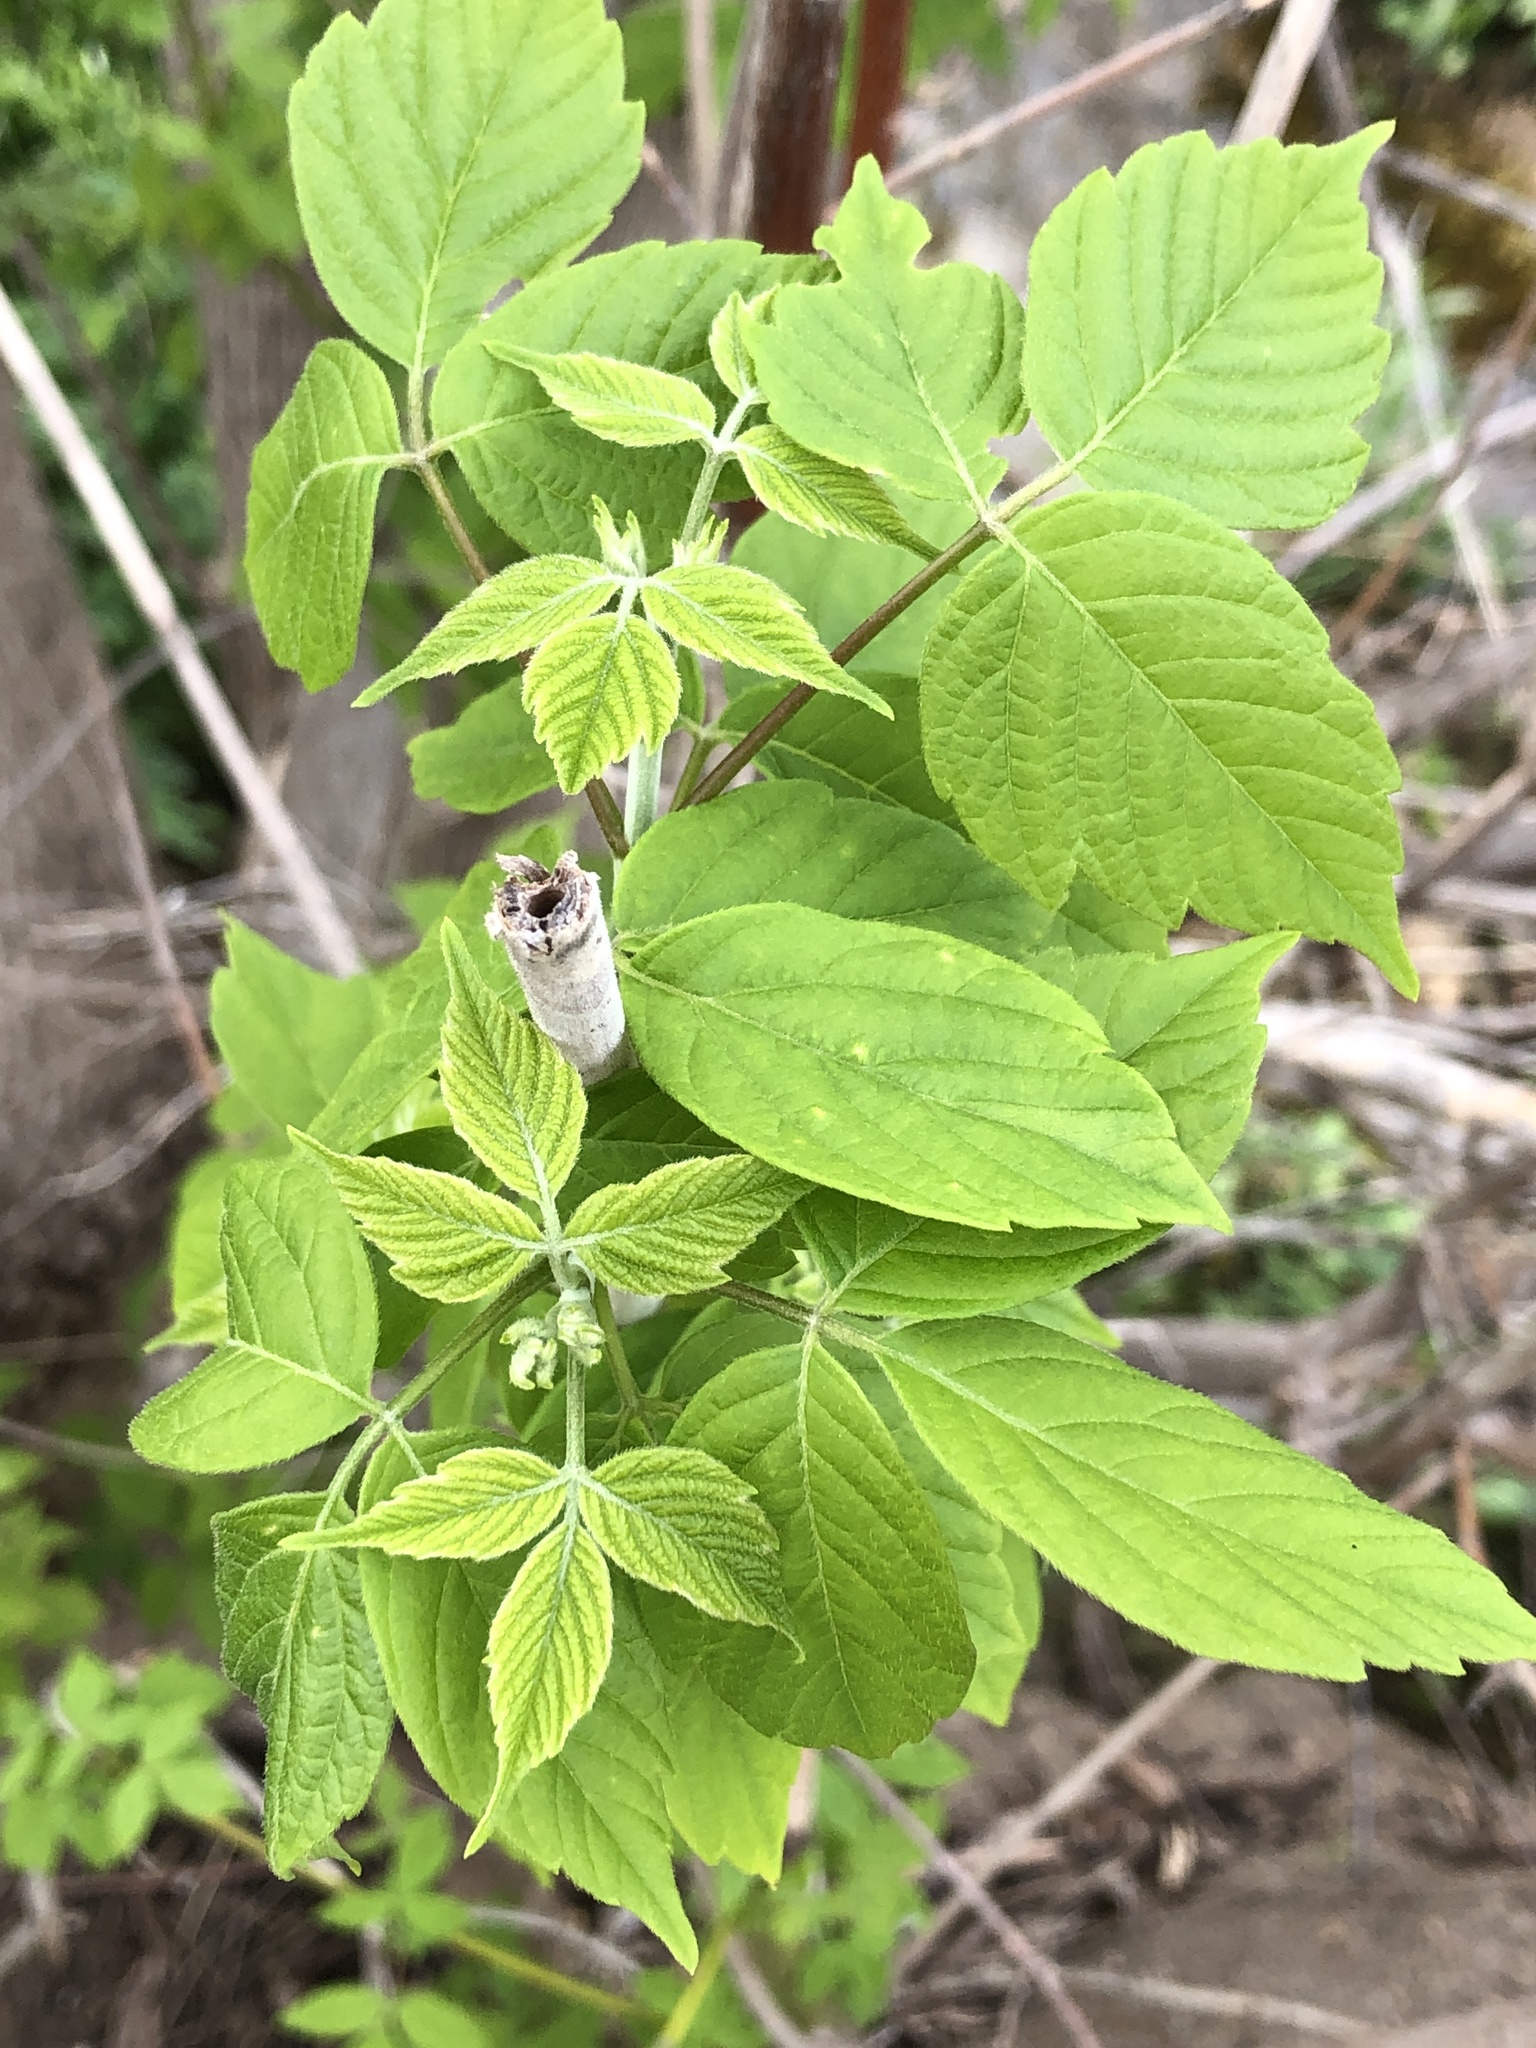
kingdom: Plantae
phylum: Tracheophyta
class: Magnoliopsida
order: Sapindales
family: Sapindaceae
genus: Acer
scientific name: Acer negundo
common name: Ashleaf maple
